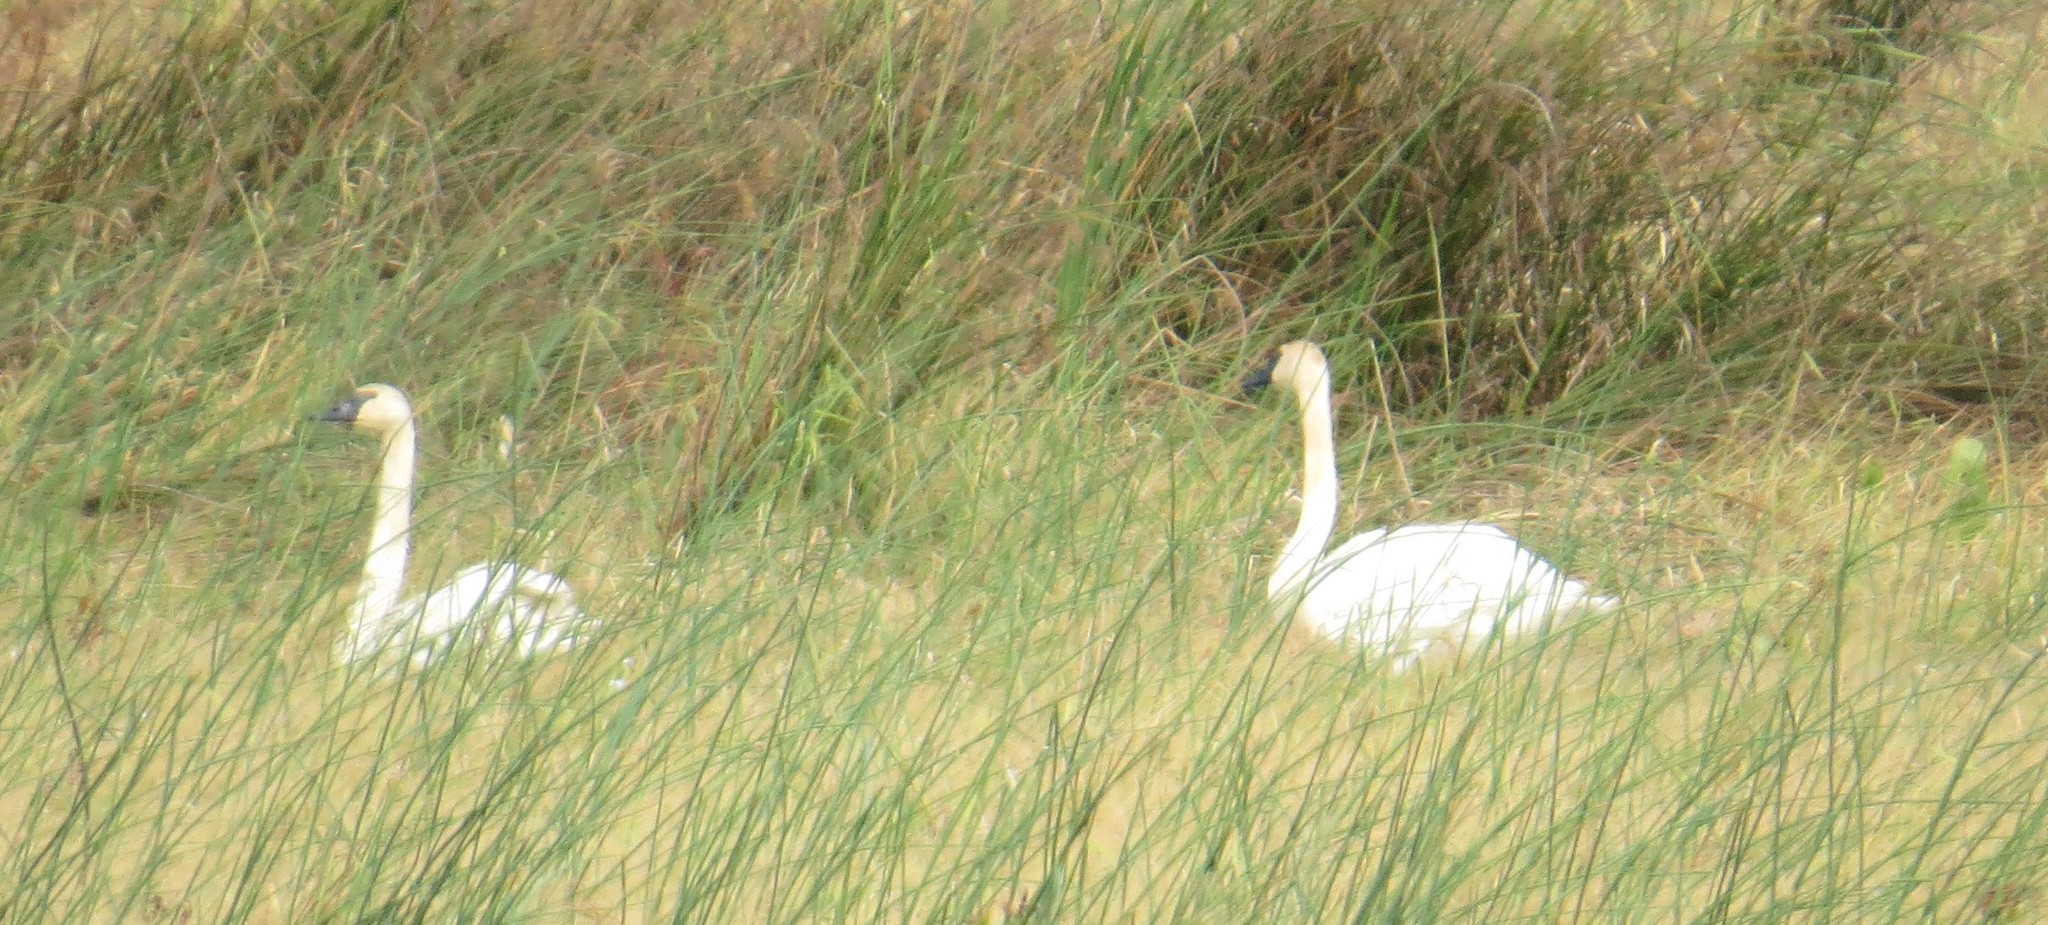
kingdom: Animalia
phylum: Chordata
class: Aves
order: Anseriformes
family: Anatidae
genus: Cygnus
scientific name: Cygnus buccinator
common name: Trumpeter swan
